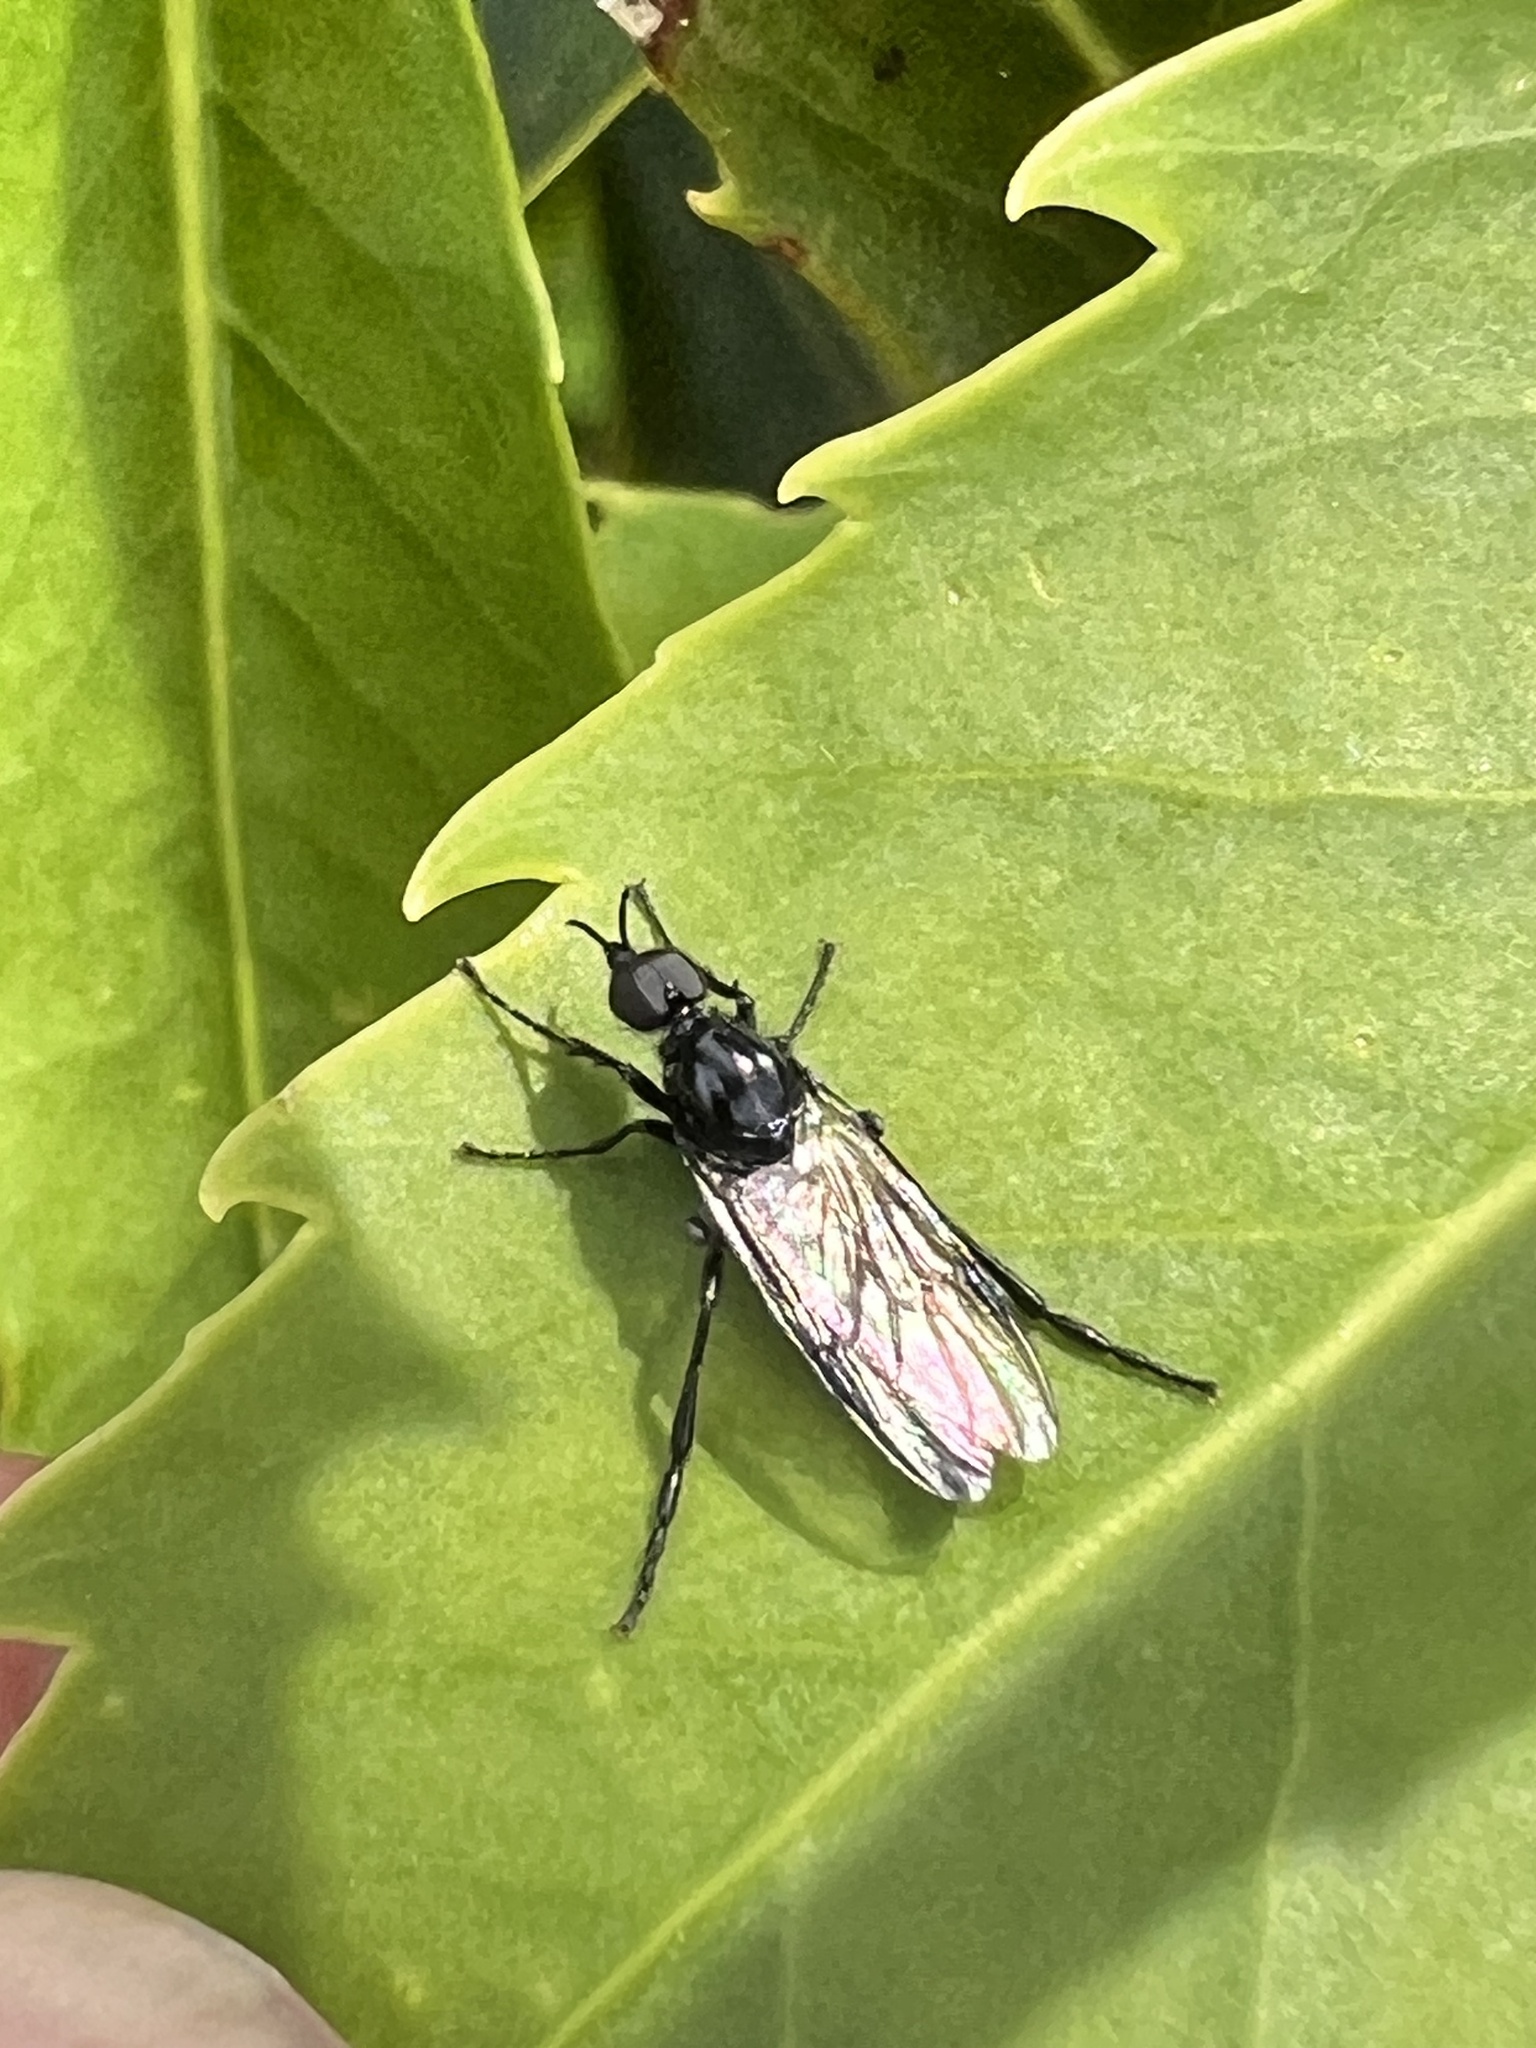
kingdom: Animalia
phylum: Arthropoda
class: Insecta
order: Diptera
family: Bibionidae
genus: Dilophus
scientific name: Dilophus nigrostigma
